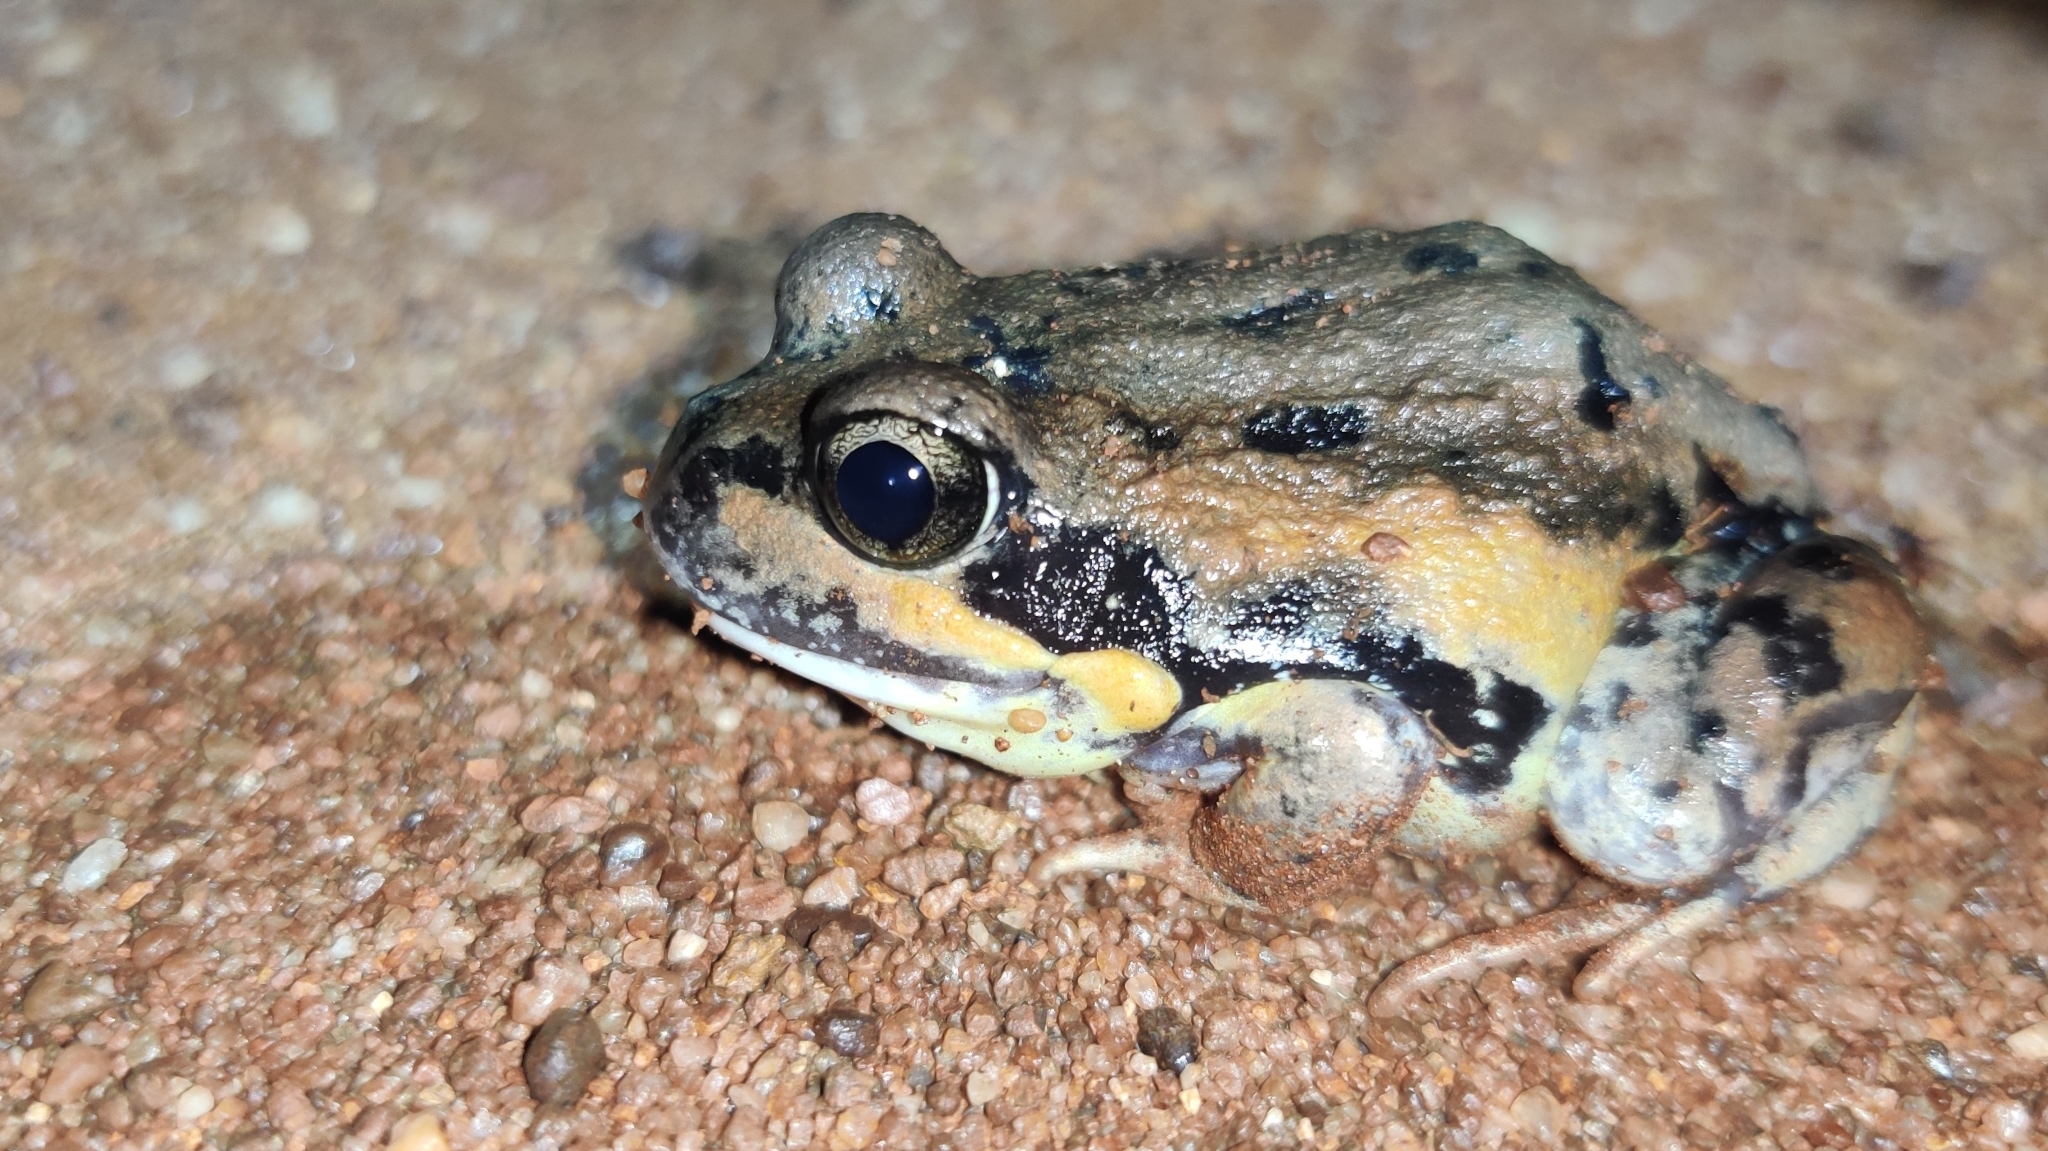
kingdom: Animalia
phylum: Chordata
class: Amphibia
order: Anura
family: Limnodynastidae
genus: Limnodynastes
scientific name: Limnodynastes interioris
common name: Giant banjo frog
